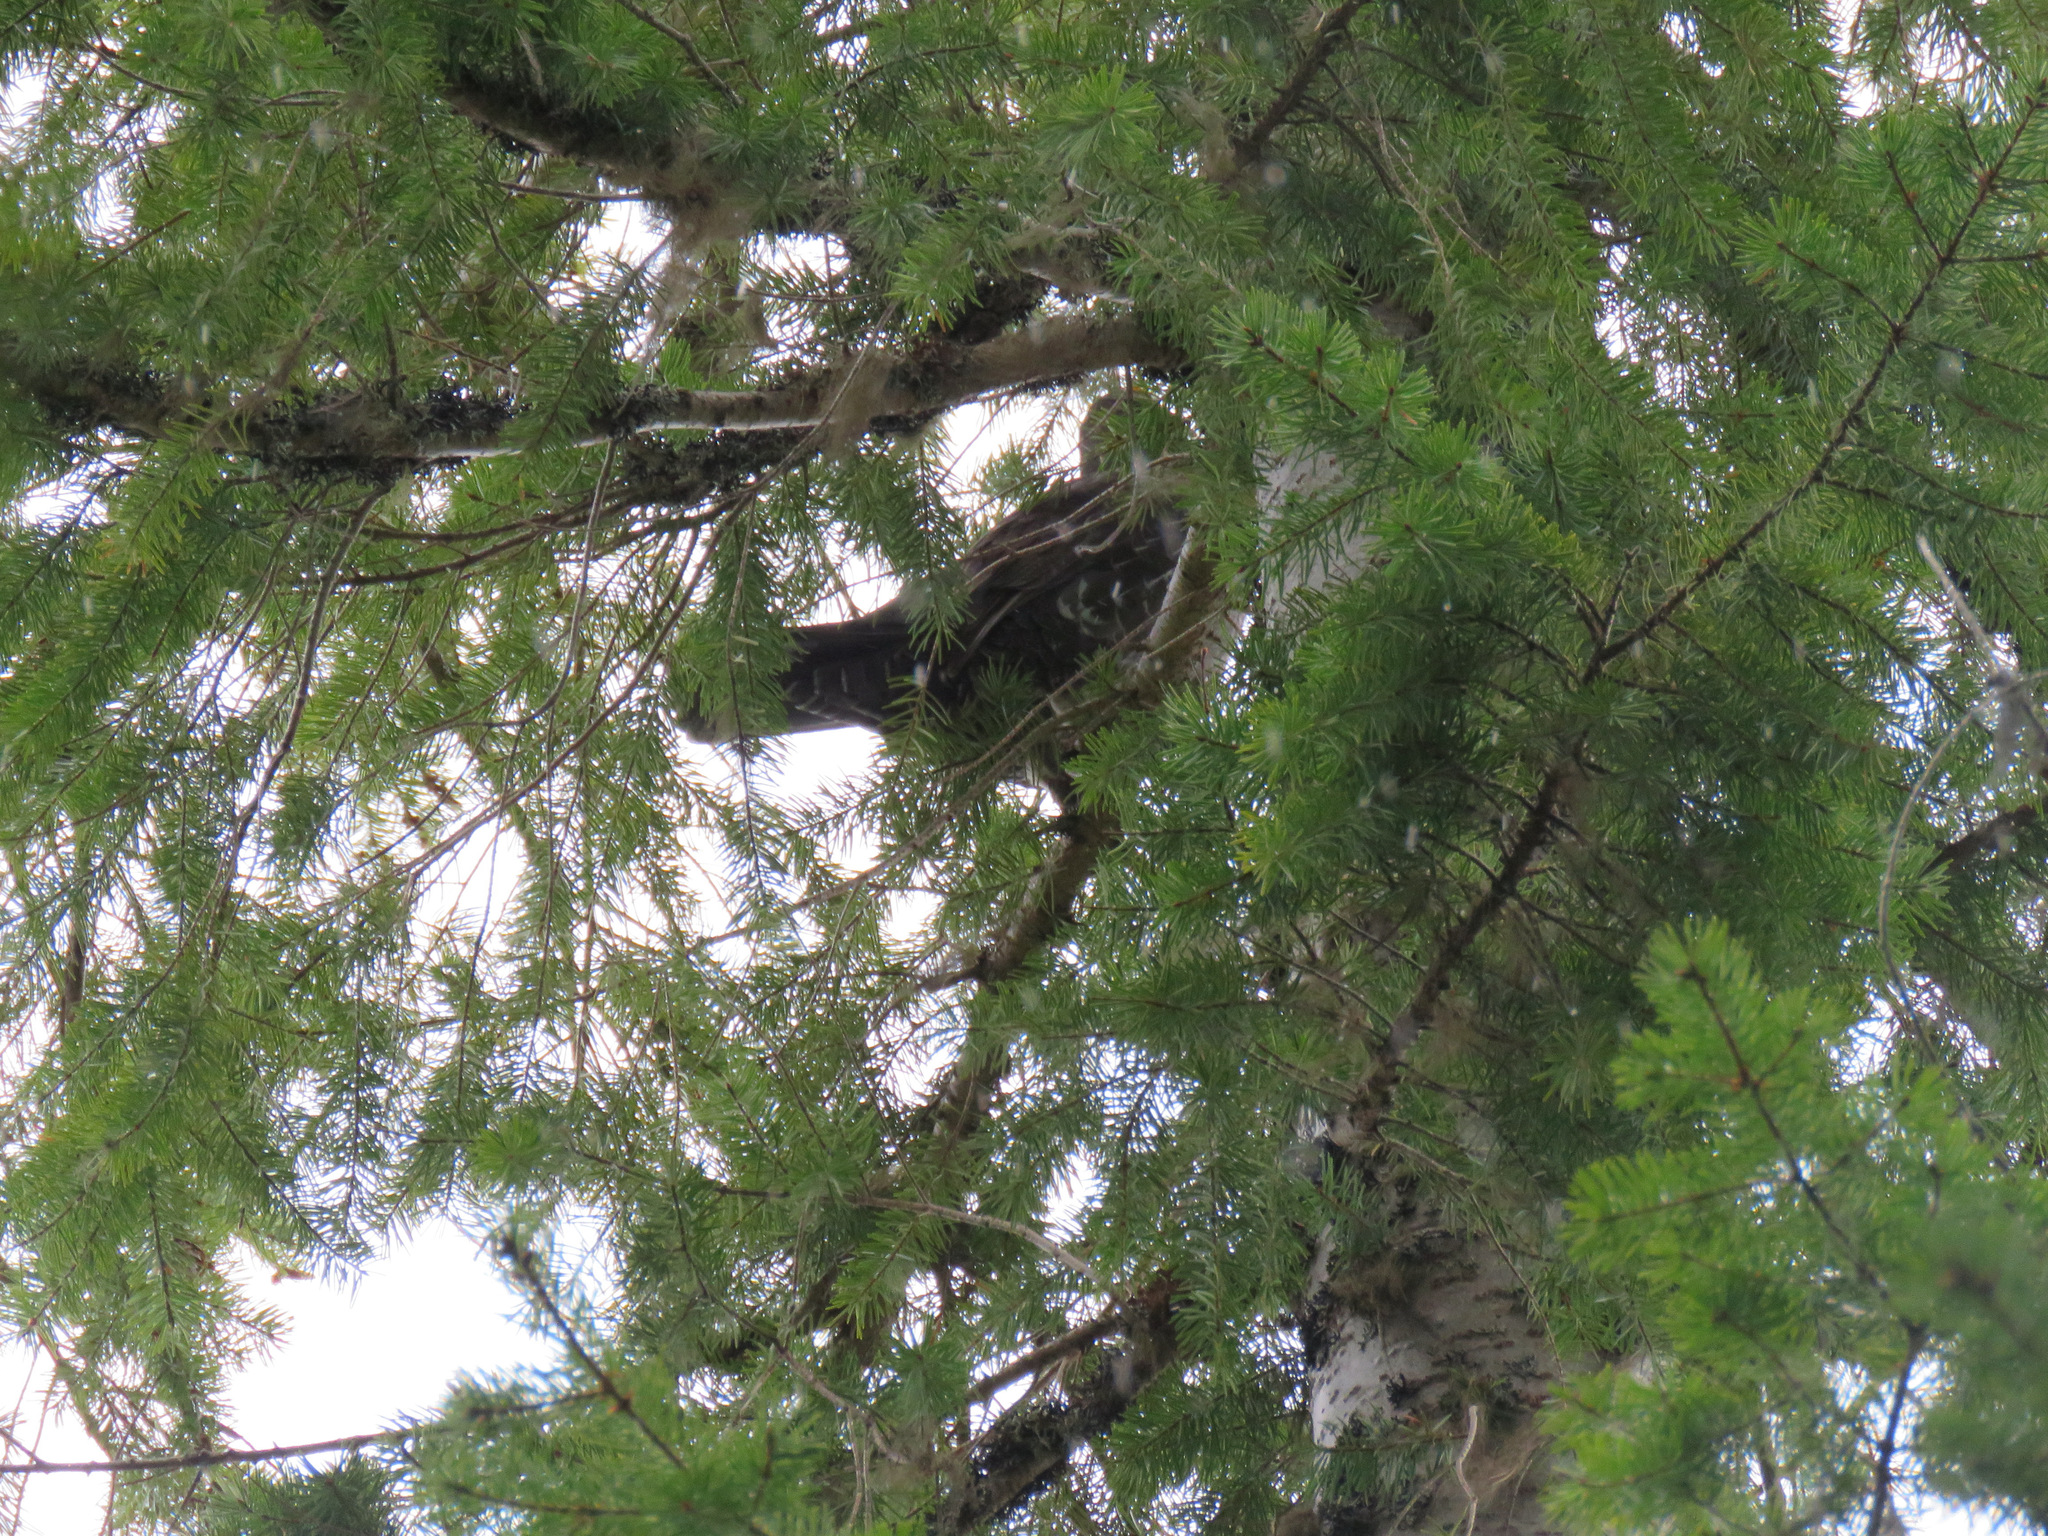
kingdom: Animalia
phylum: Chordata
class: Aves
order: Galliformes
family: Phasianidae
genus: Dendragapus
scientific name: Dendragapus fuliginosus
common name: Sooty grouse
